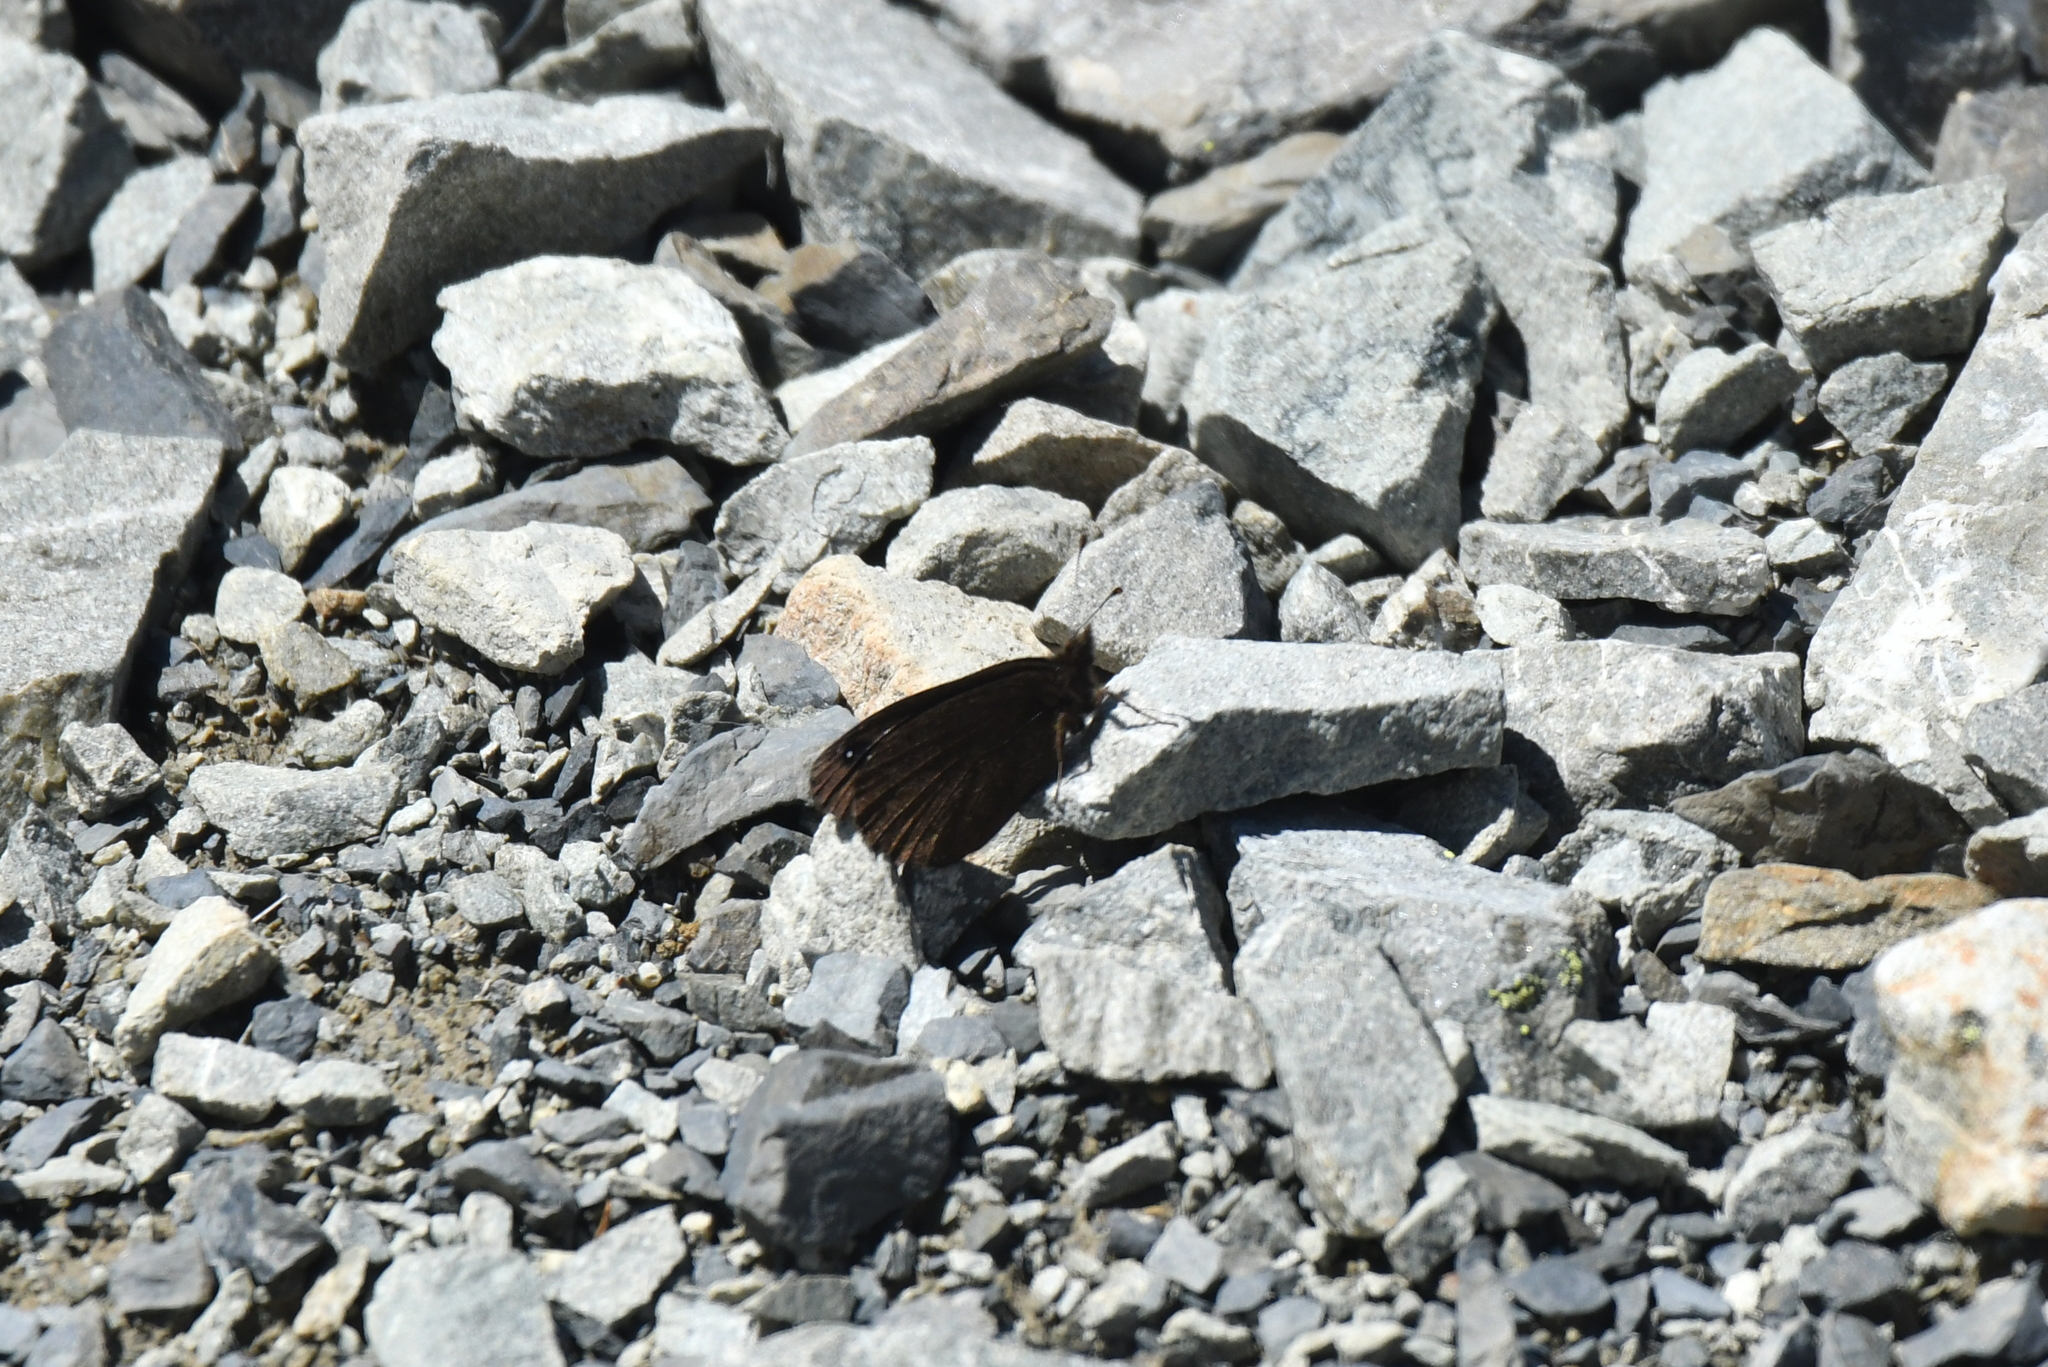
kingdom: Animalia
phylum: Arthropoda
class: Insecta
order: Lepidoptera
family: Nymphalidae
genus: Erebia
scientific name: Erebia Percnodaimon merula
